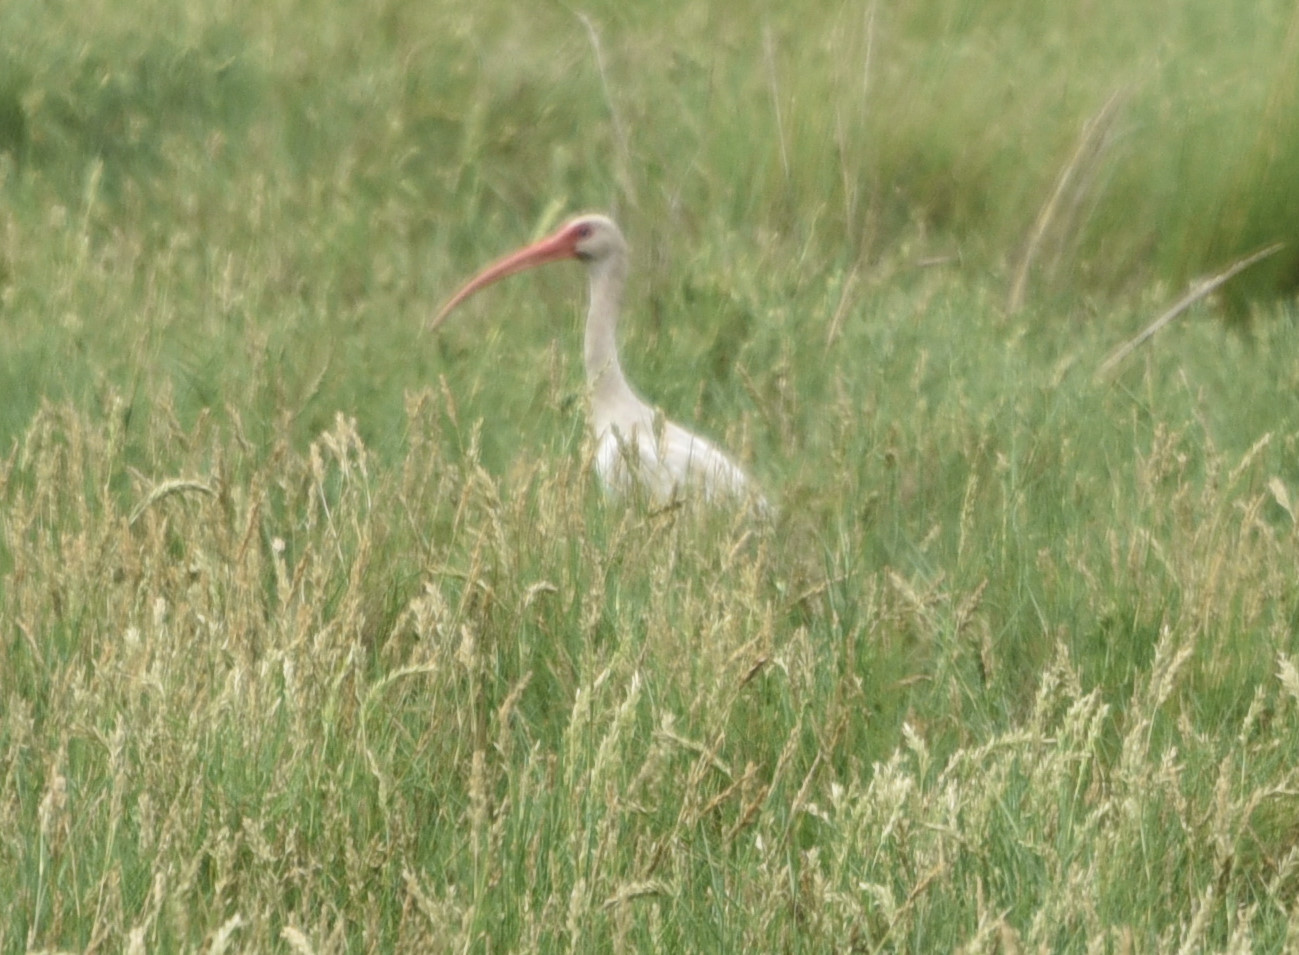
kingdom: Animalia
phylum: Chordata
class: Aves
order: Pelecaniformes
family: Threskiornithidae
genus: Eudocimus
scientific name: Eudocimus albus
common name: White ibis
